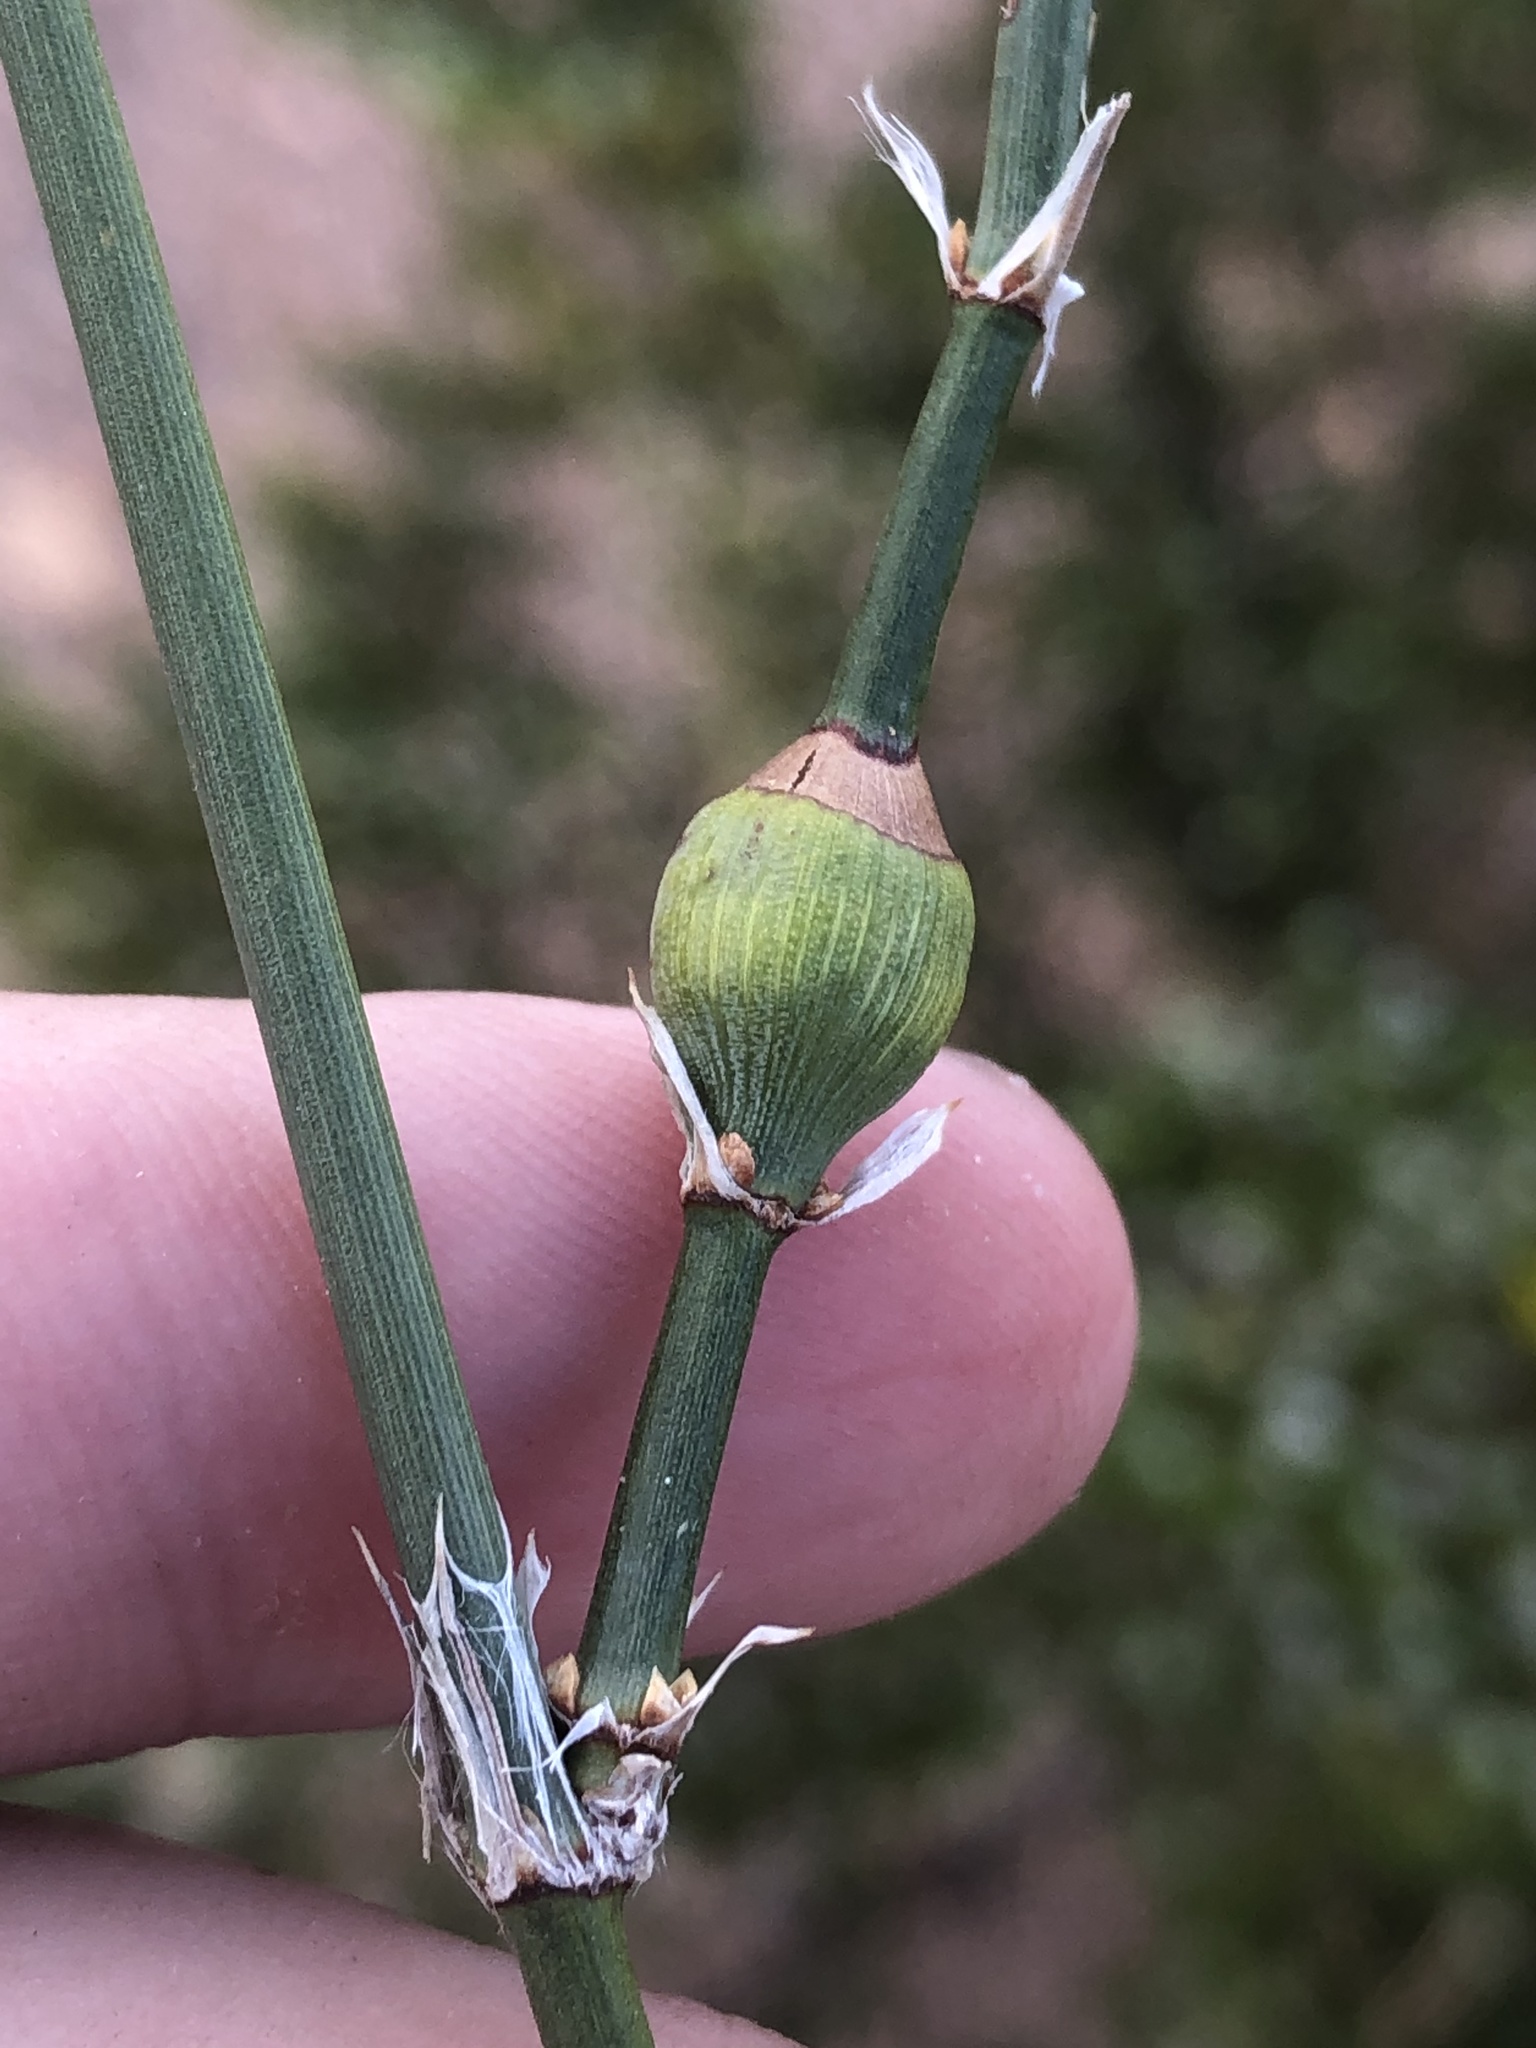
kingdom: Animalia
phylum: Arthropoda
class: Insecta
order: Diptera
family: Cecidomyiidae
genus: Lasioptera
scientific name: Lasioptera ephedricola
